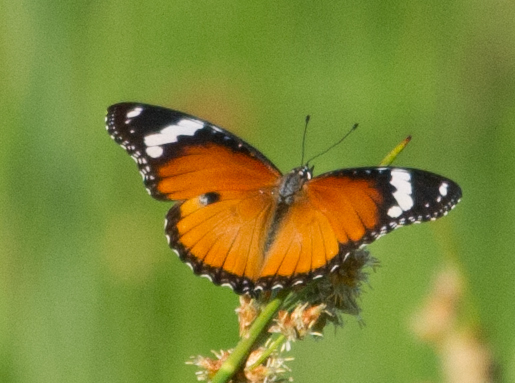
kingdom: Animalia
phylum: Arthropoda
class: Insecta
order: Lepidoptera
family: Nymphalidae
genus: Hypolimnas
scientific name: Hypolimnas misippus
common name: False plain tiger
